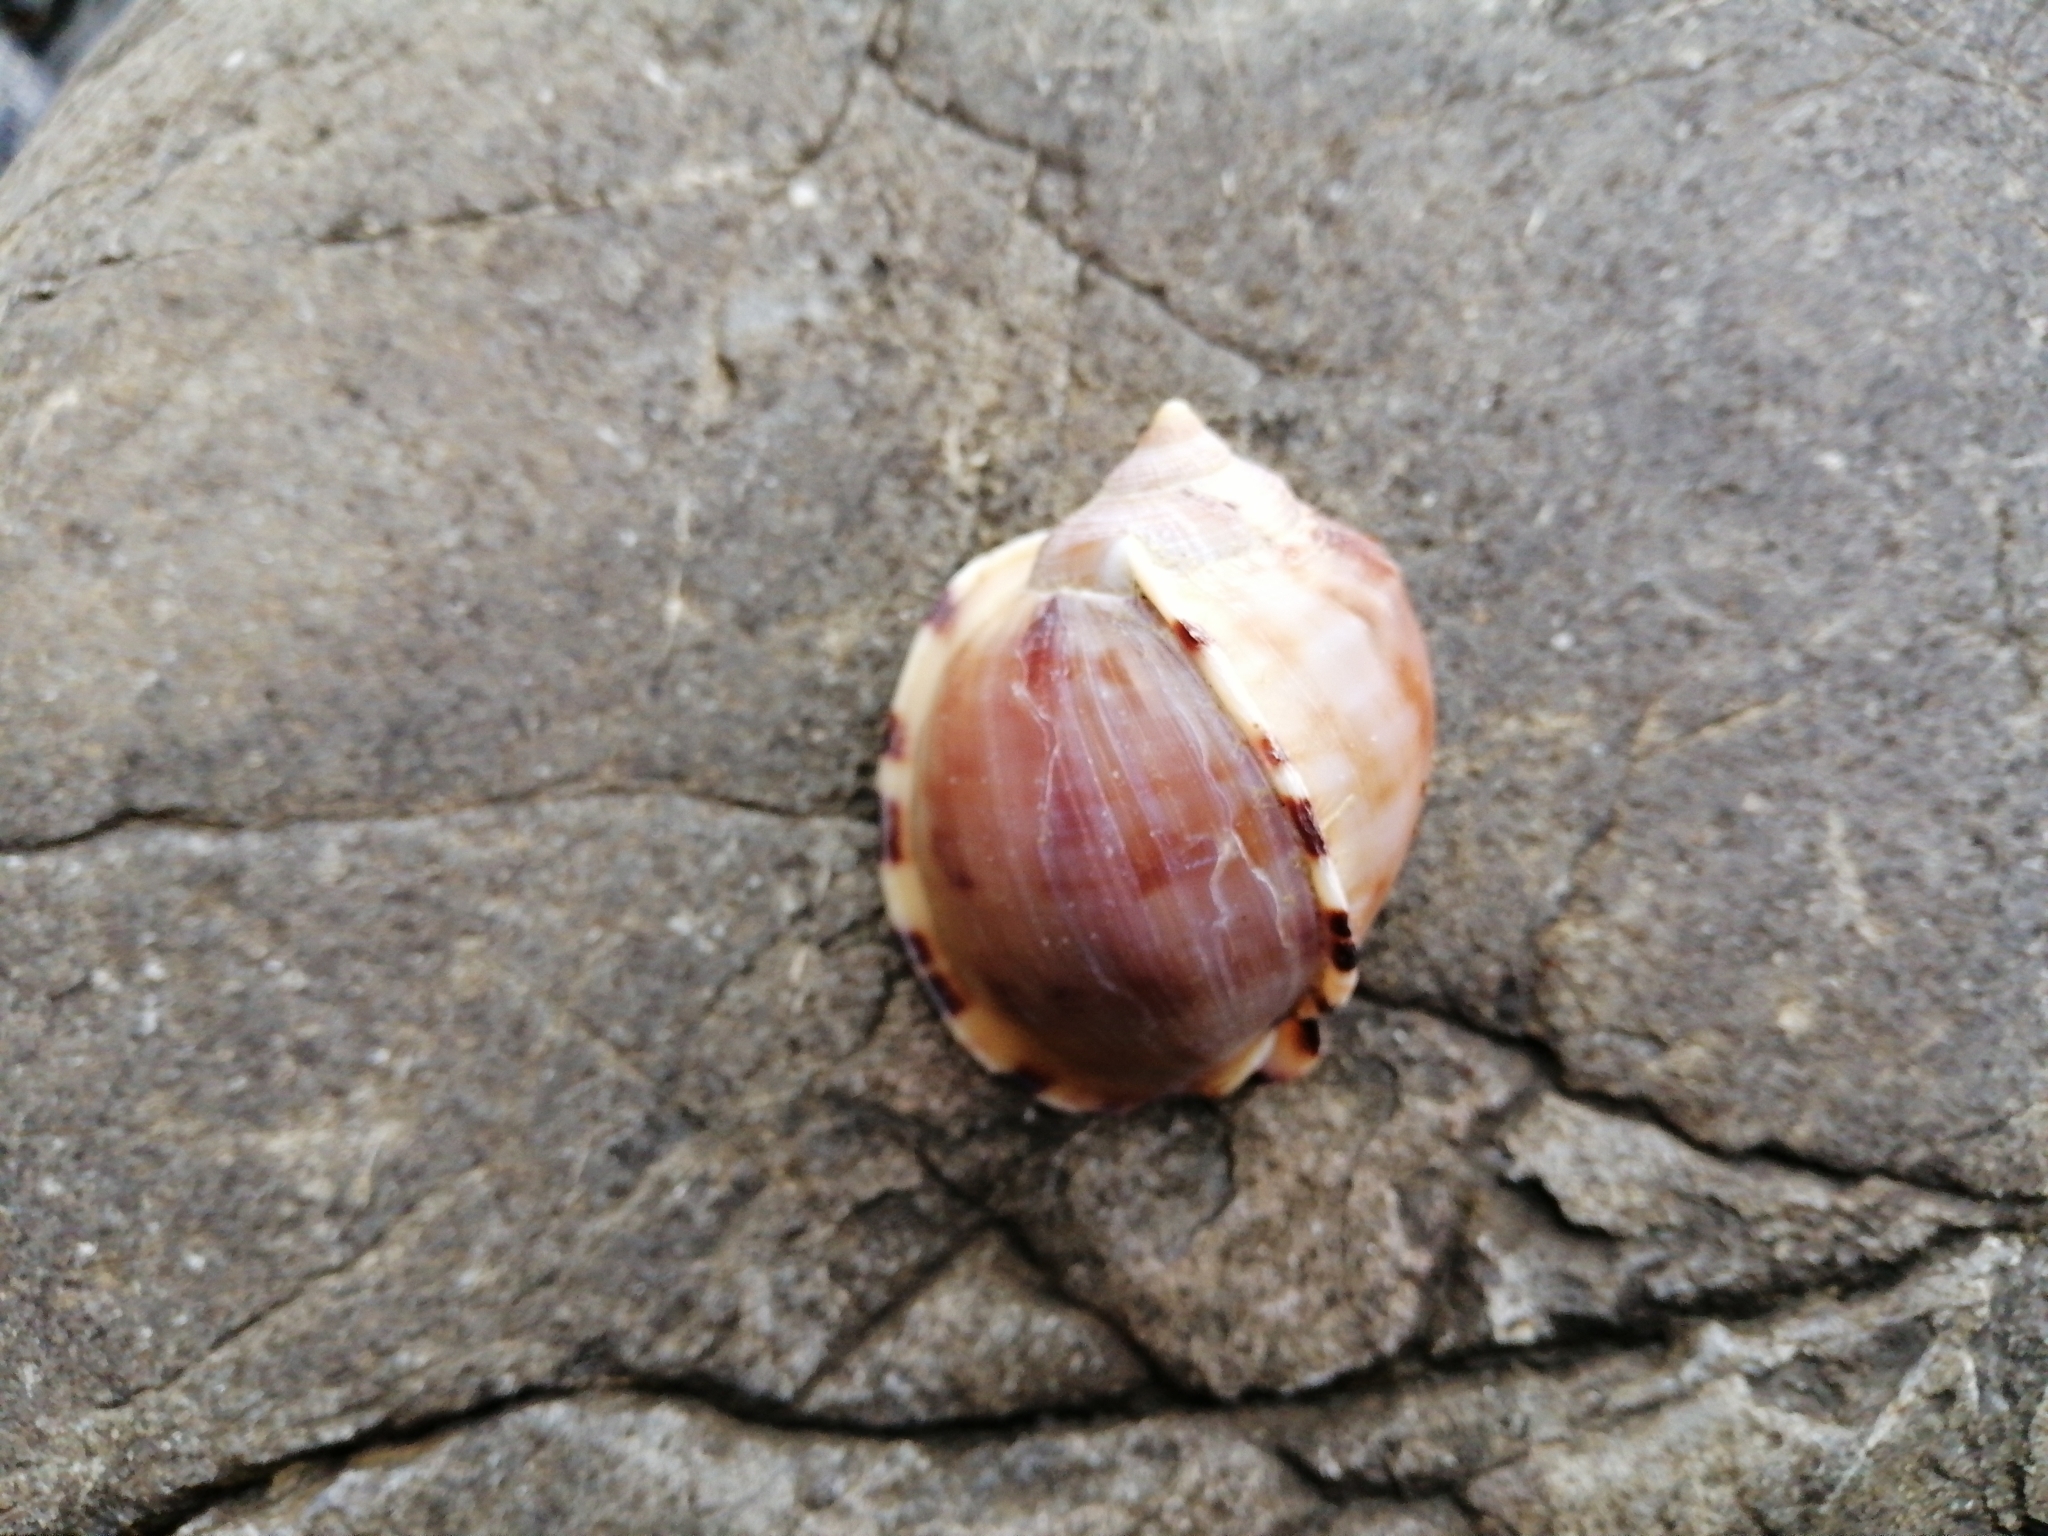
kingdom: Animalia
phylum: Mollusca
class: Gastropoda
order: Littorinimorpha
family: Cassidae
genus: Semicassis
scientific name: Semicassis pyrum
